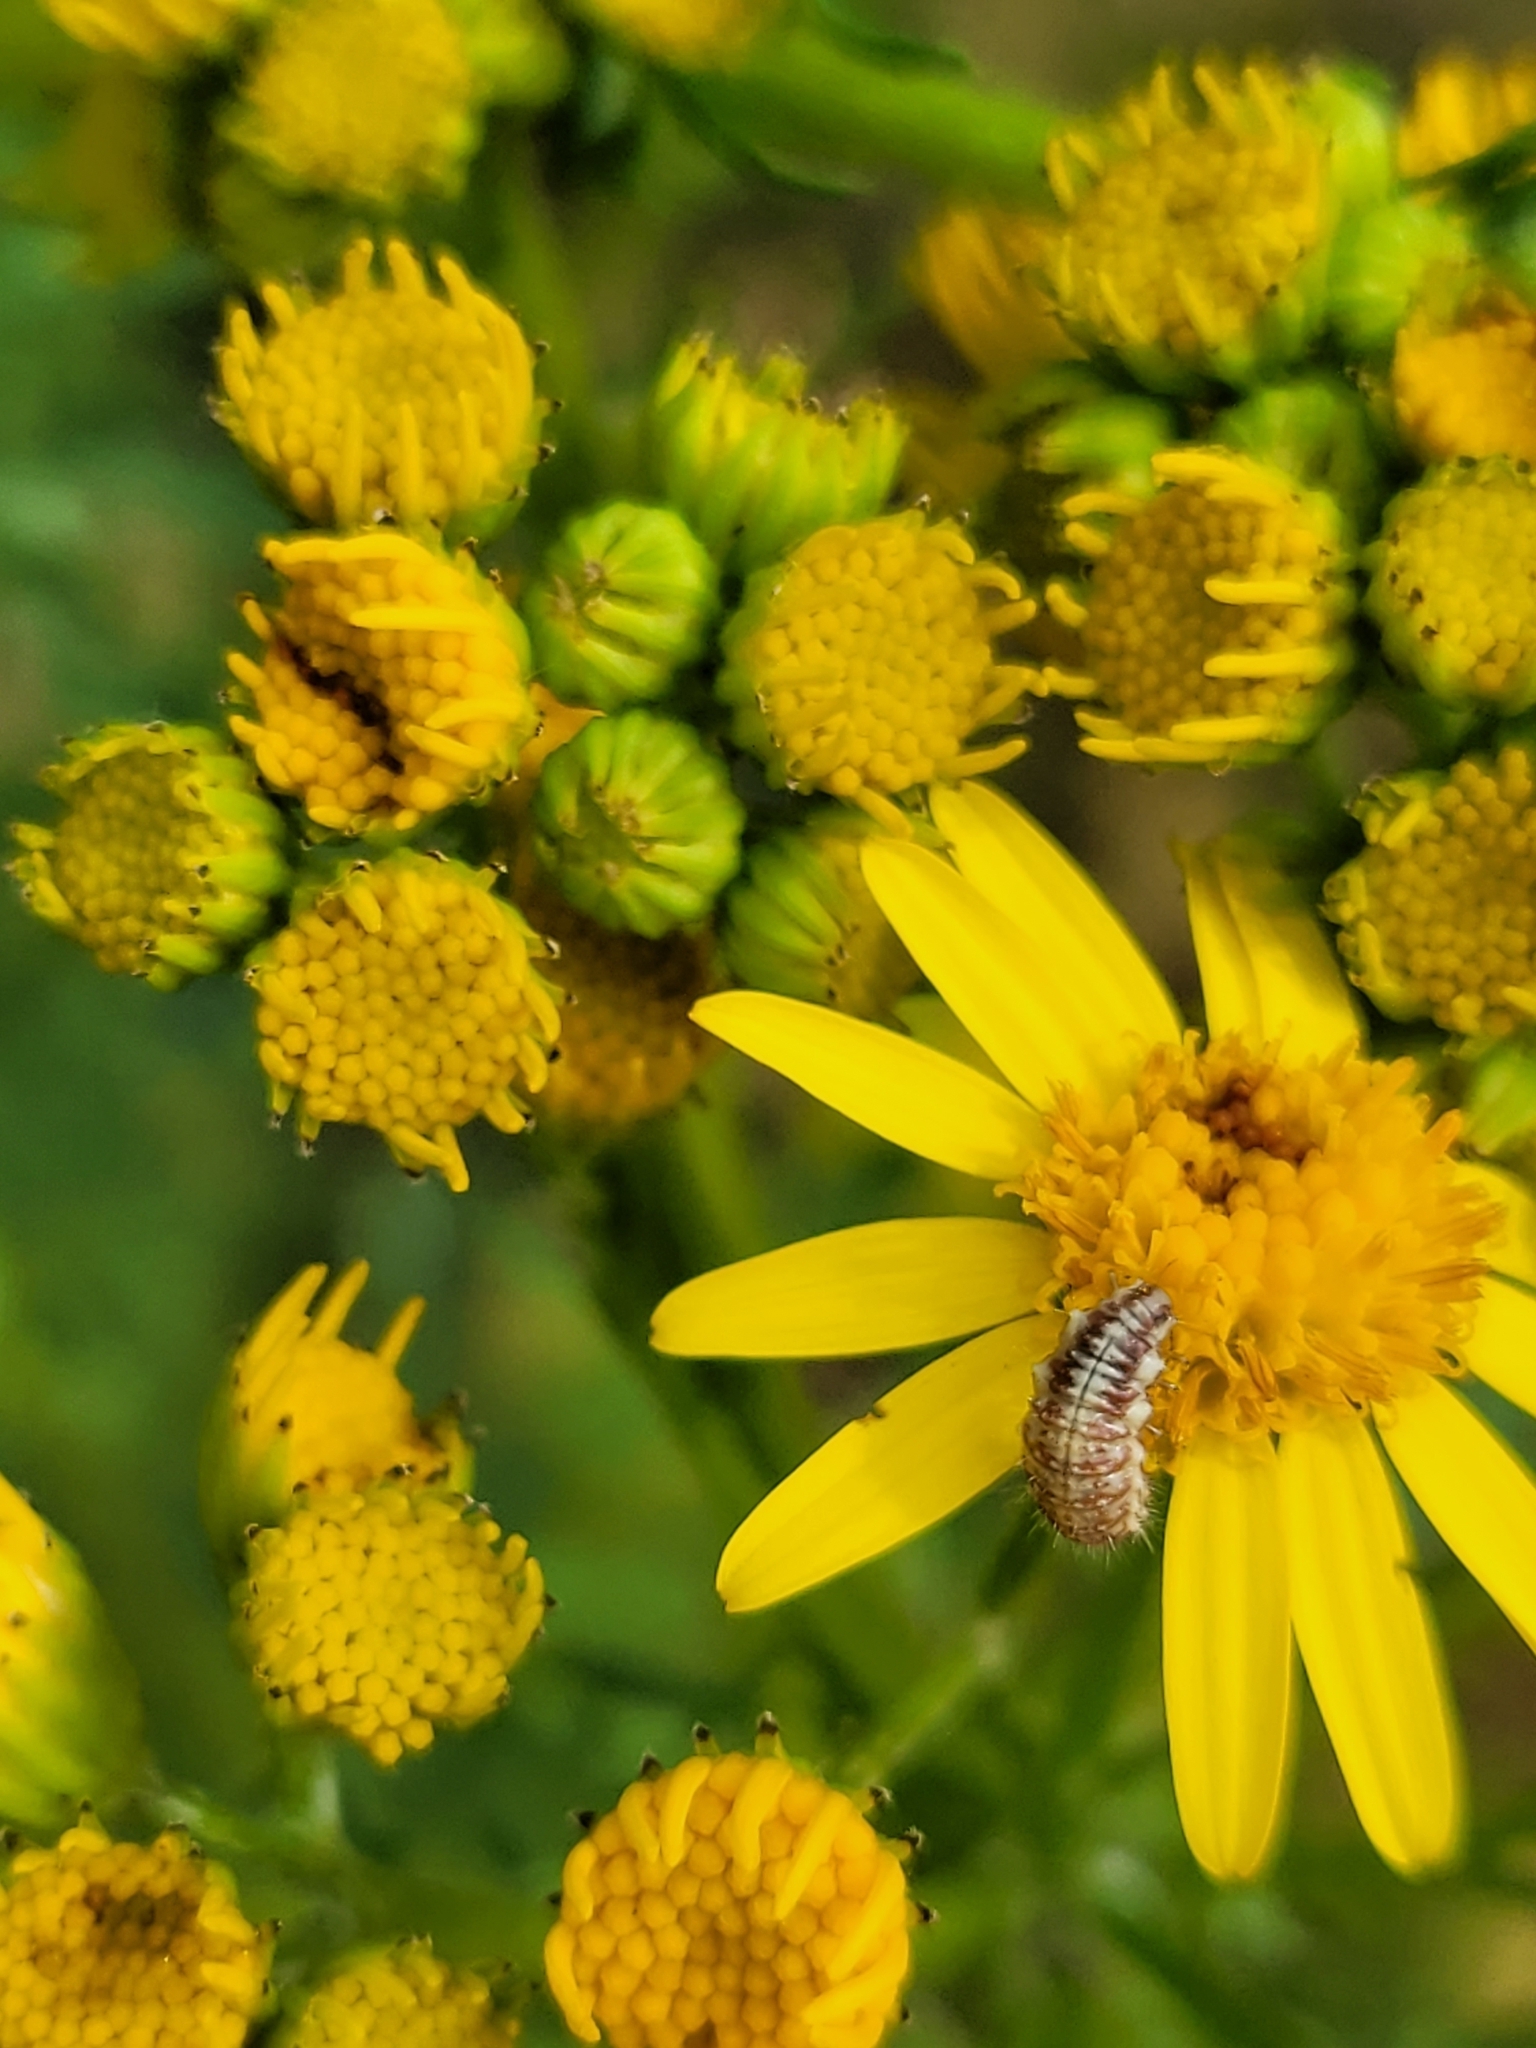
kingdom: Plantae
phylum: Tracheophyta
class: Magnoliopsida
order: Asterales
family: Asteraceae
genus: Jacobaea
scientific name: Jacobaea vulgaris
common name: Stinking willie
